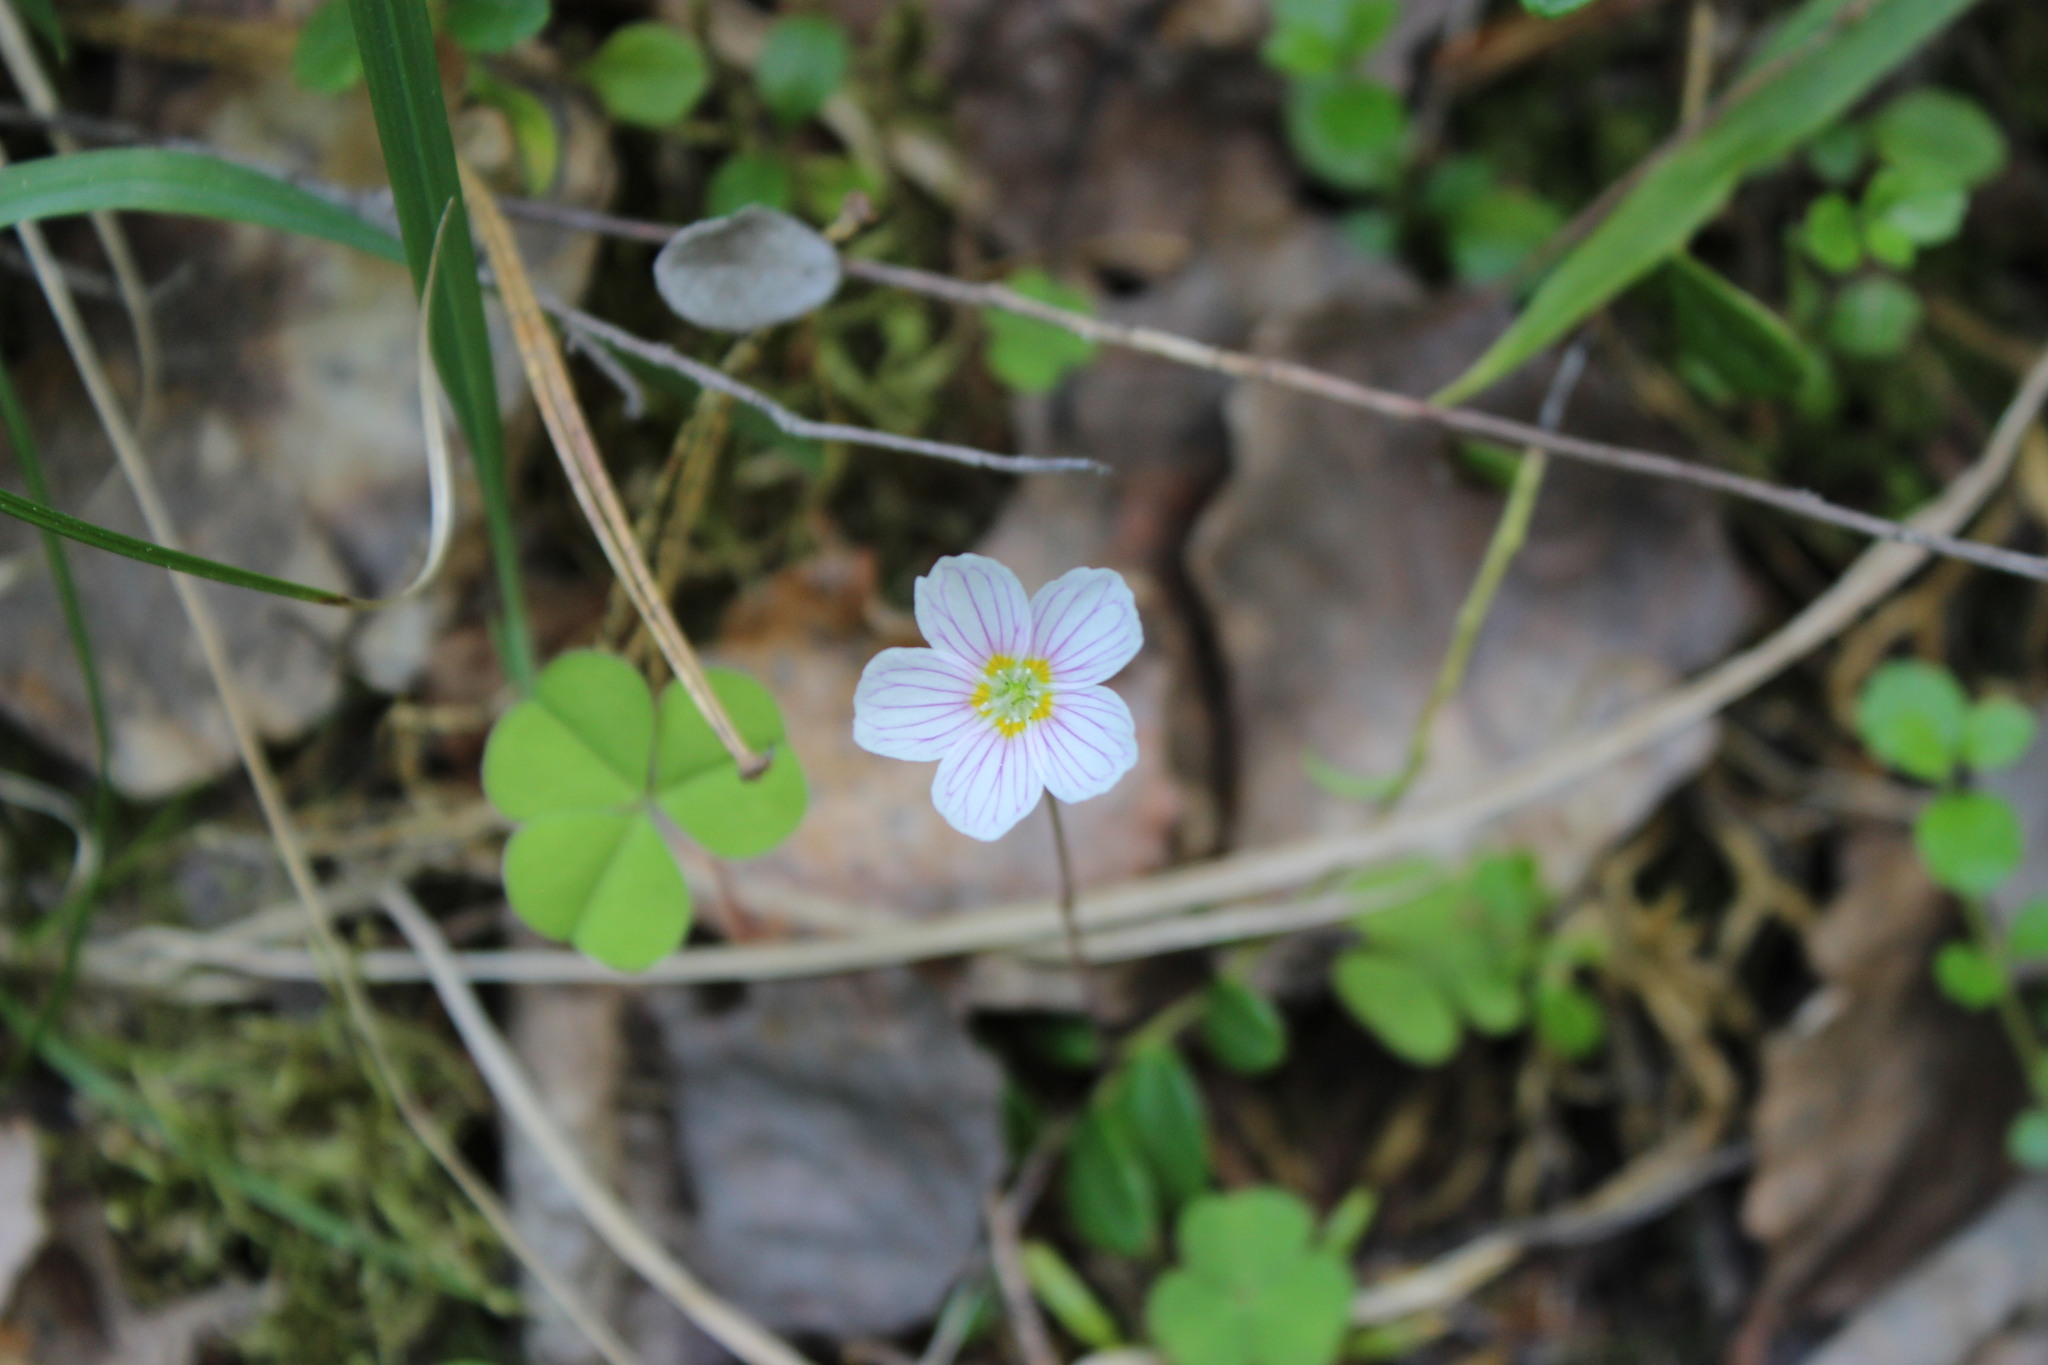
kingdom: Plantae
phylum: Tracheophyta
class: Magnoliopsida
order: Oxalidales
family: Oxalidaceae
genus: Oxalis
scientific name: Oxalis acetosella
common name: Wood-sorrel
